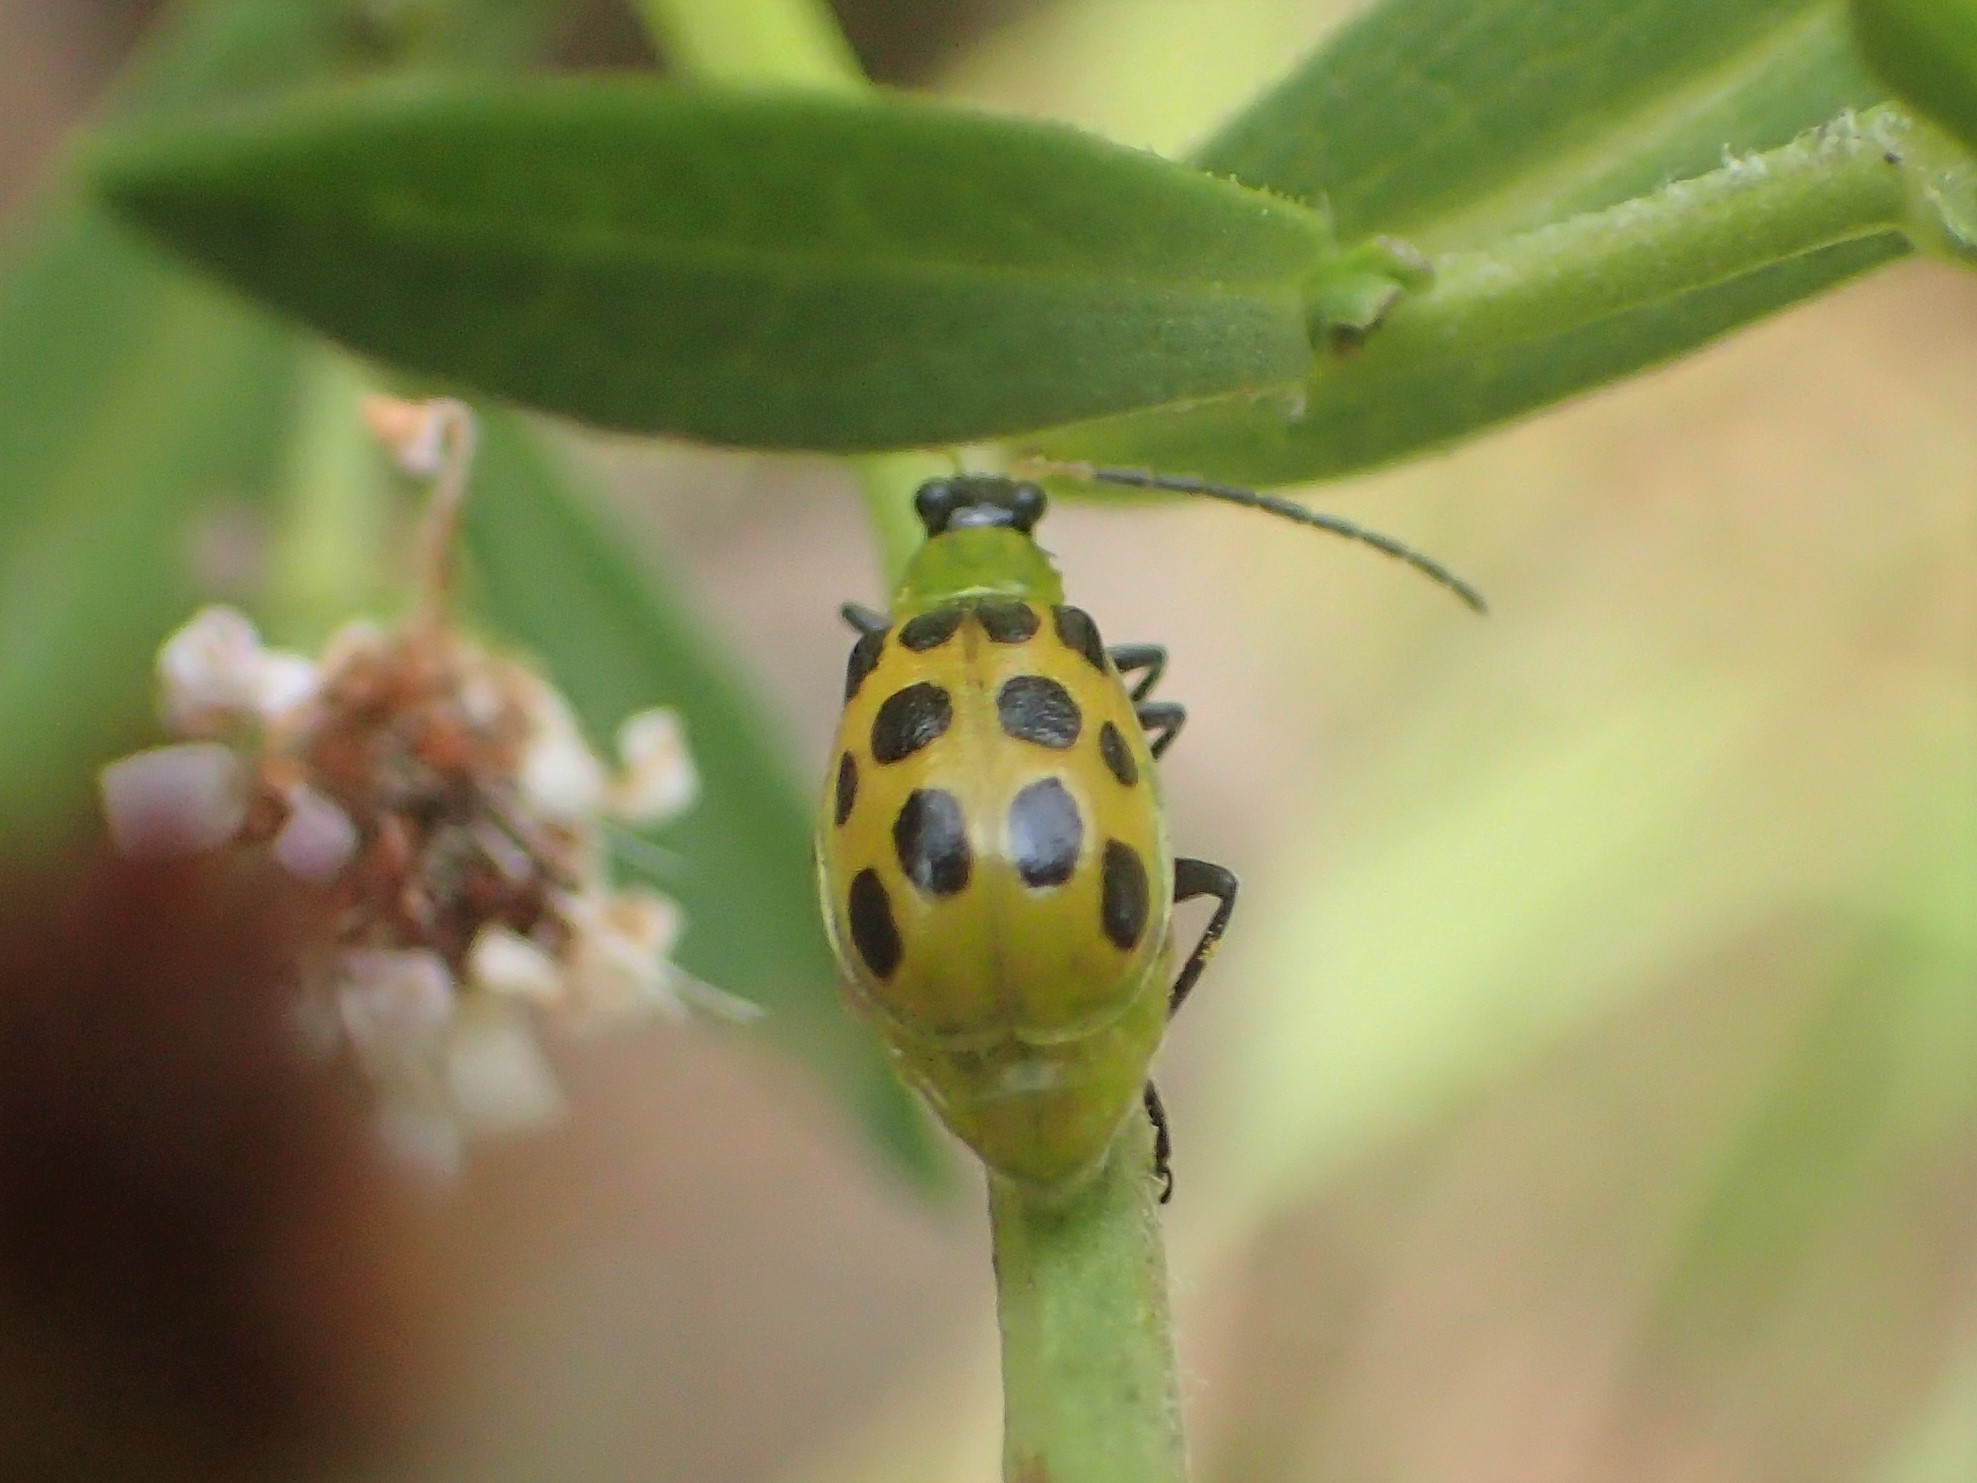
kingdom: Animalia
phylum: Arthropoda
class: Insecta
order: Coleoptera
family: Chrysomelidae
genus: Diabrotica
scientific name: Diabrotica undecimpunctata
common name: Spotted cucumber beetle
